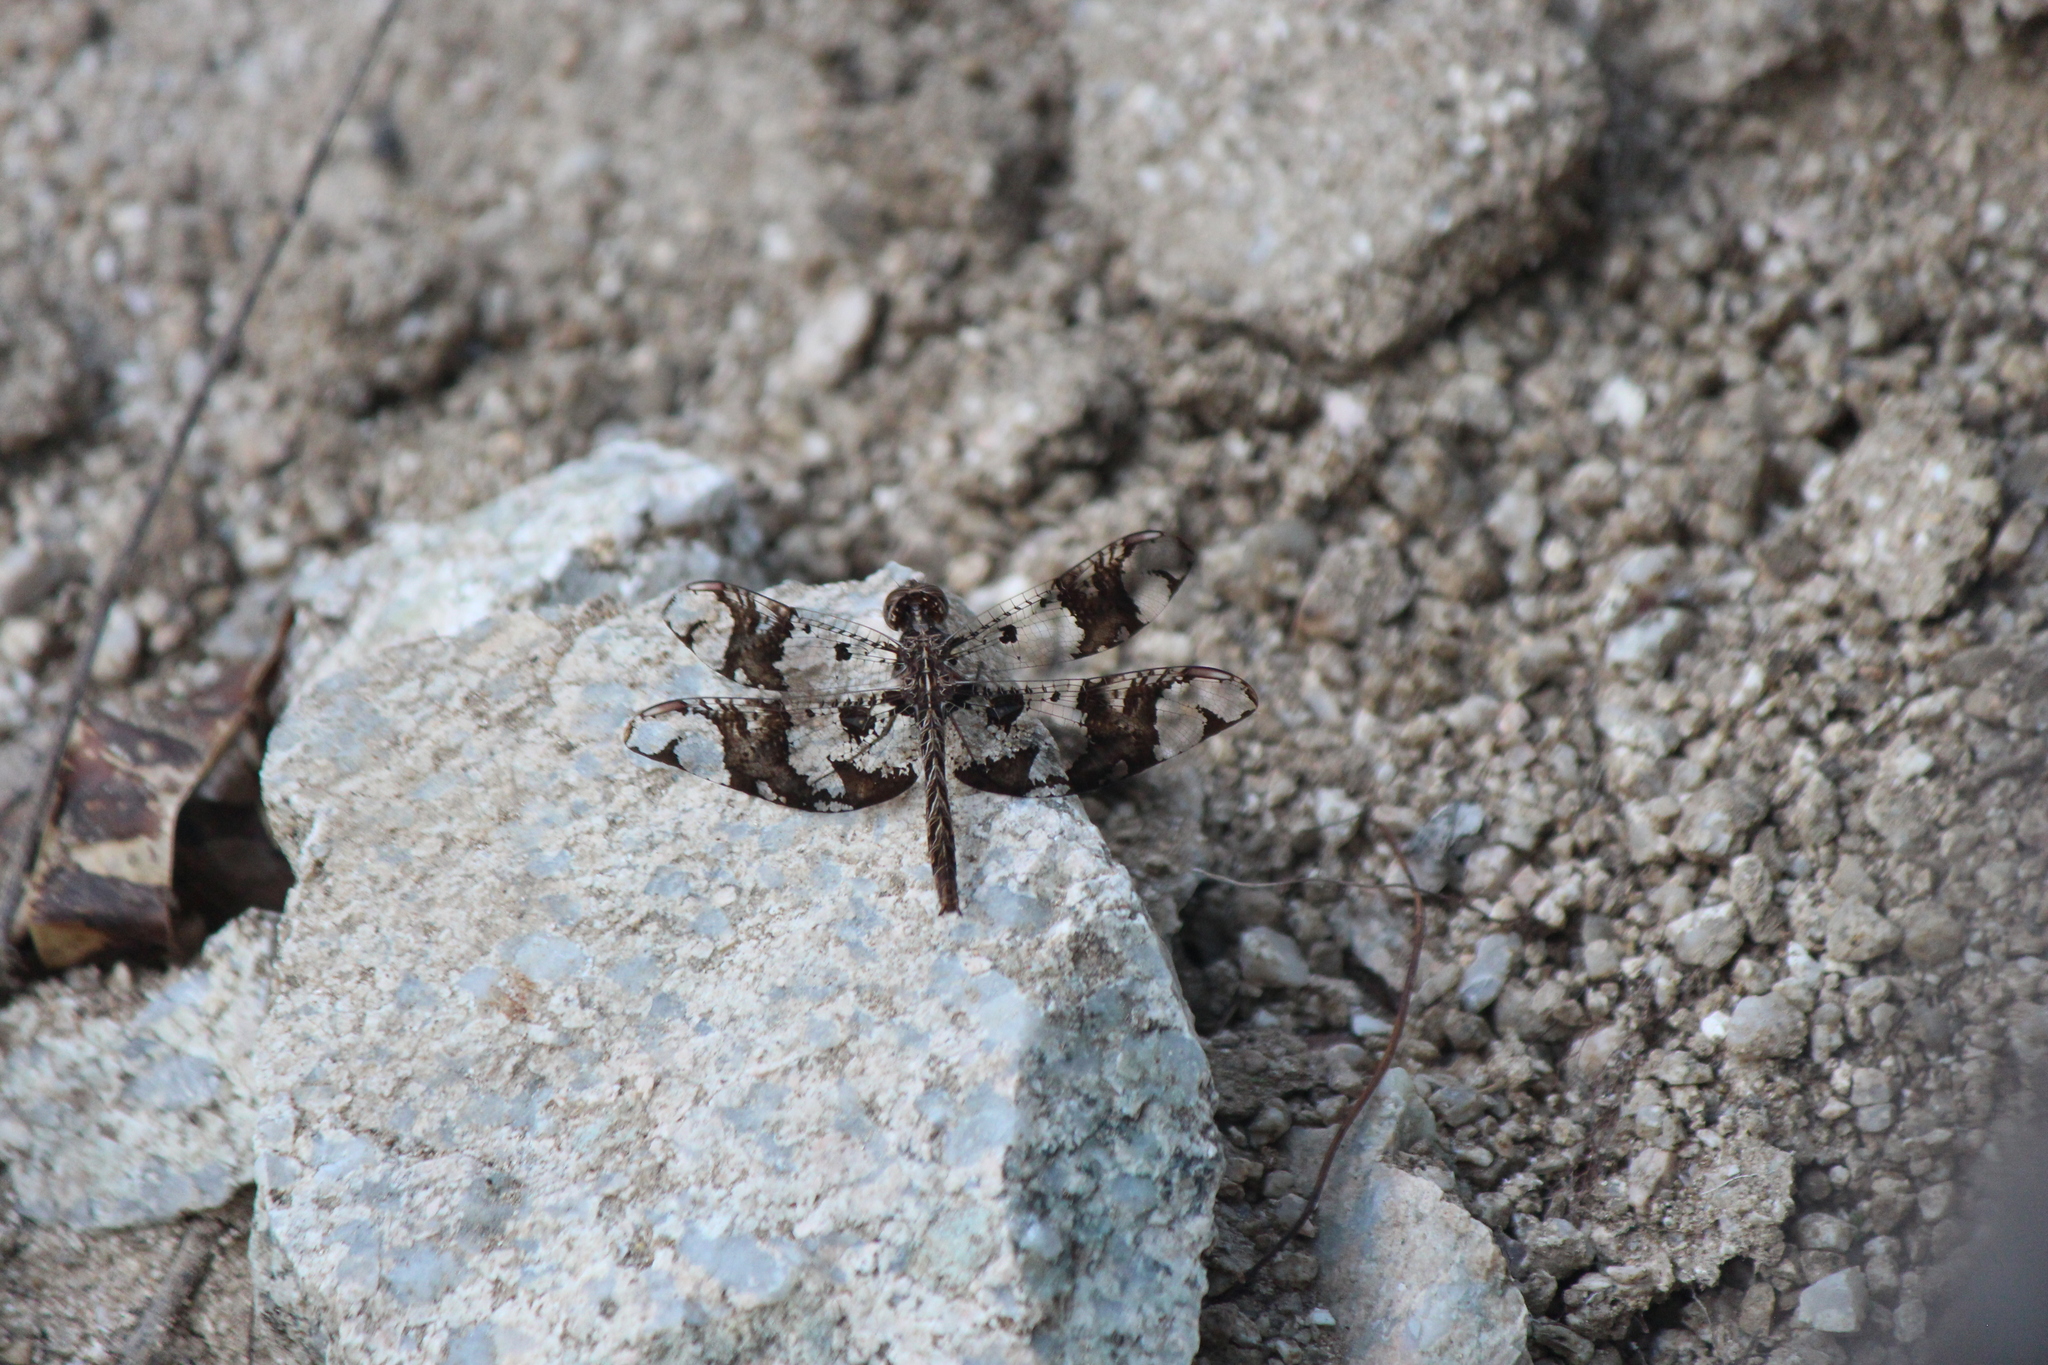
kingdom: Animalia
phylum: Arthropoda
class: Insecta
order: Odonata
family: Libellulidae
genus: Pseudoleon
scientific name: Pseudoleon superbus
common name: Filigree skimmer
